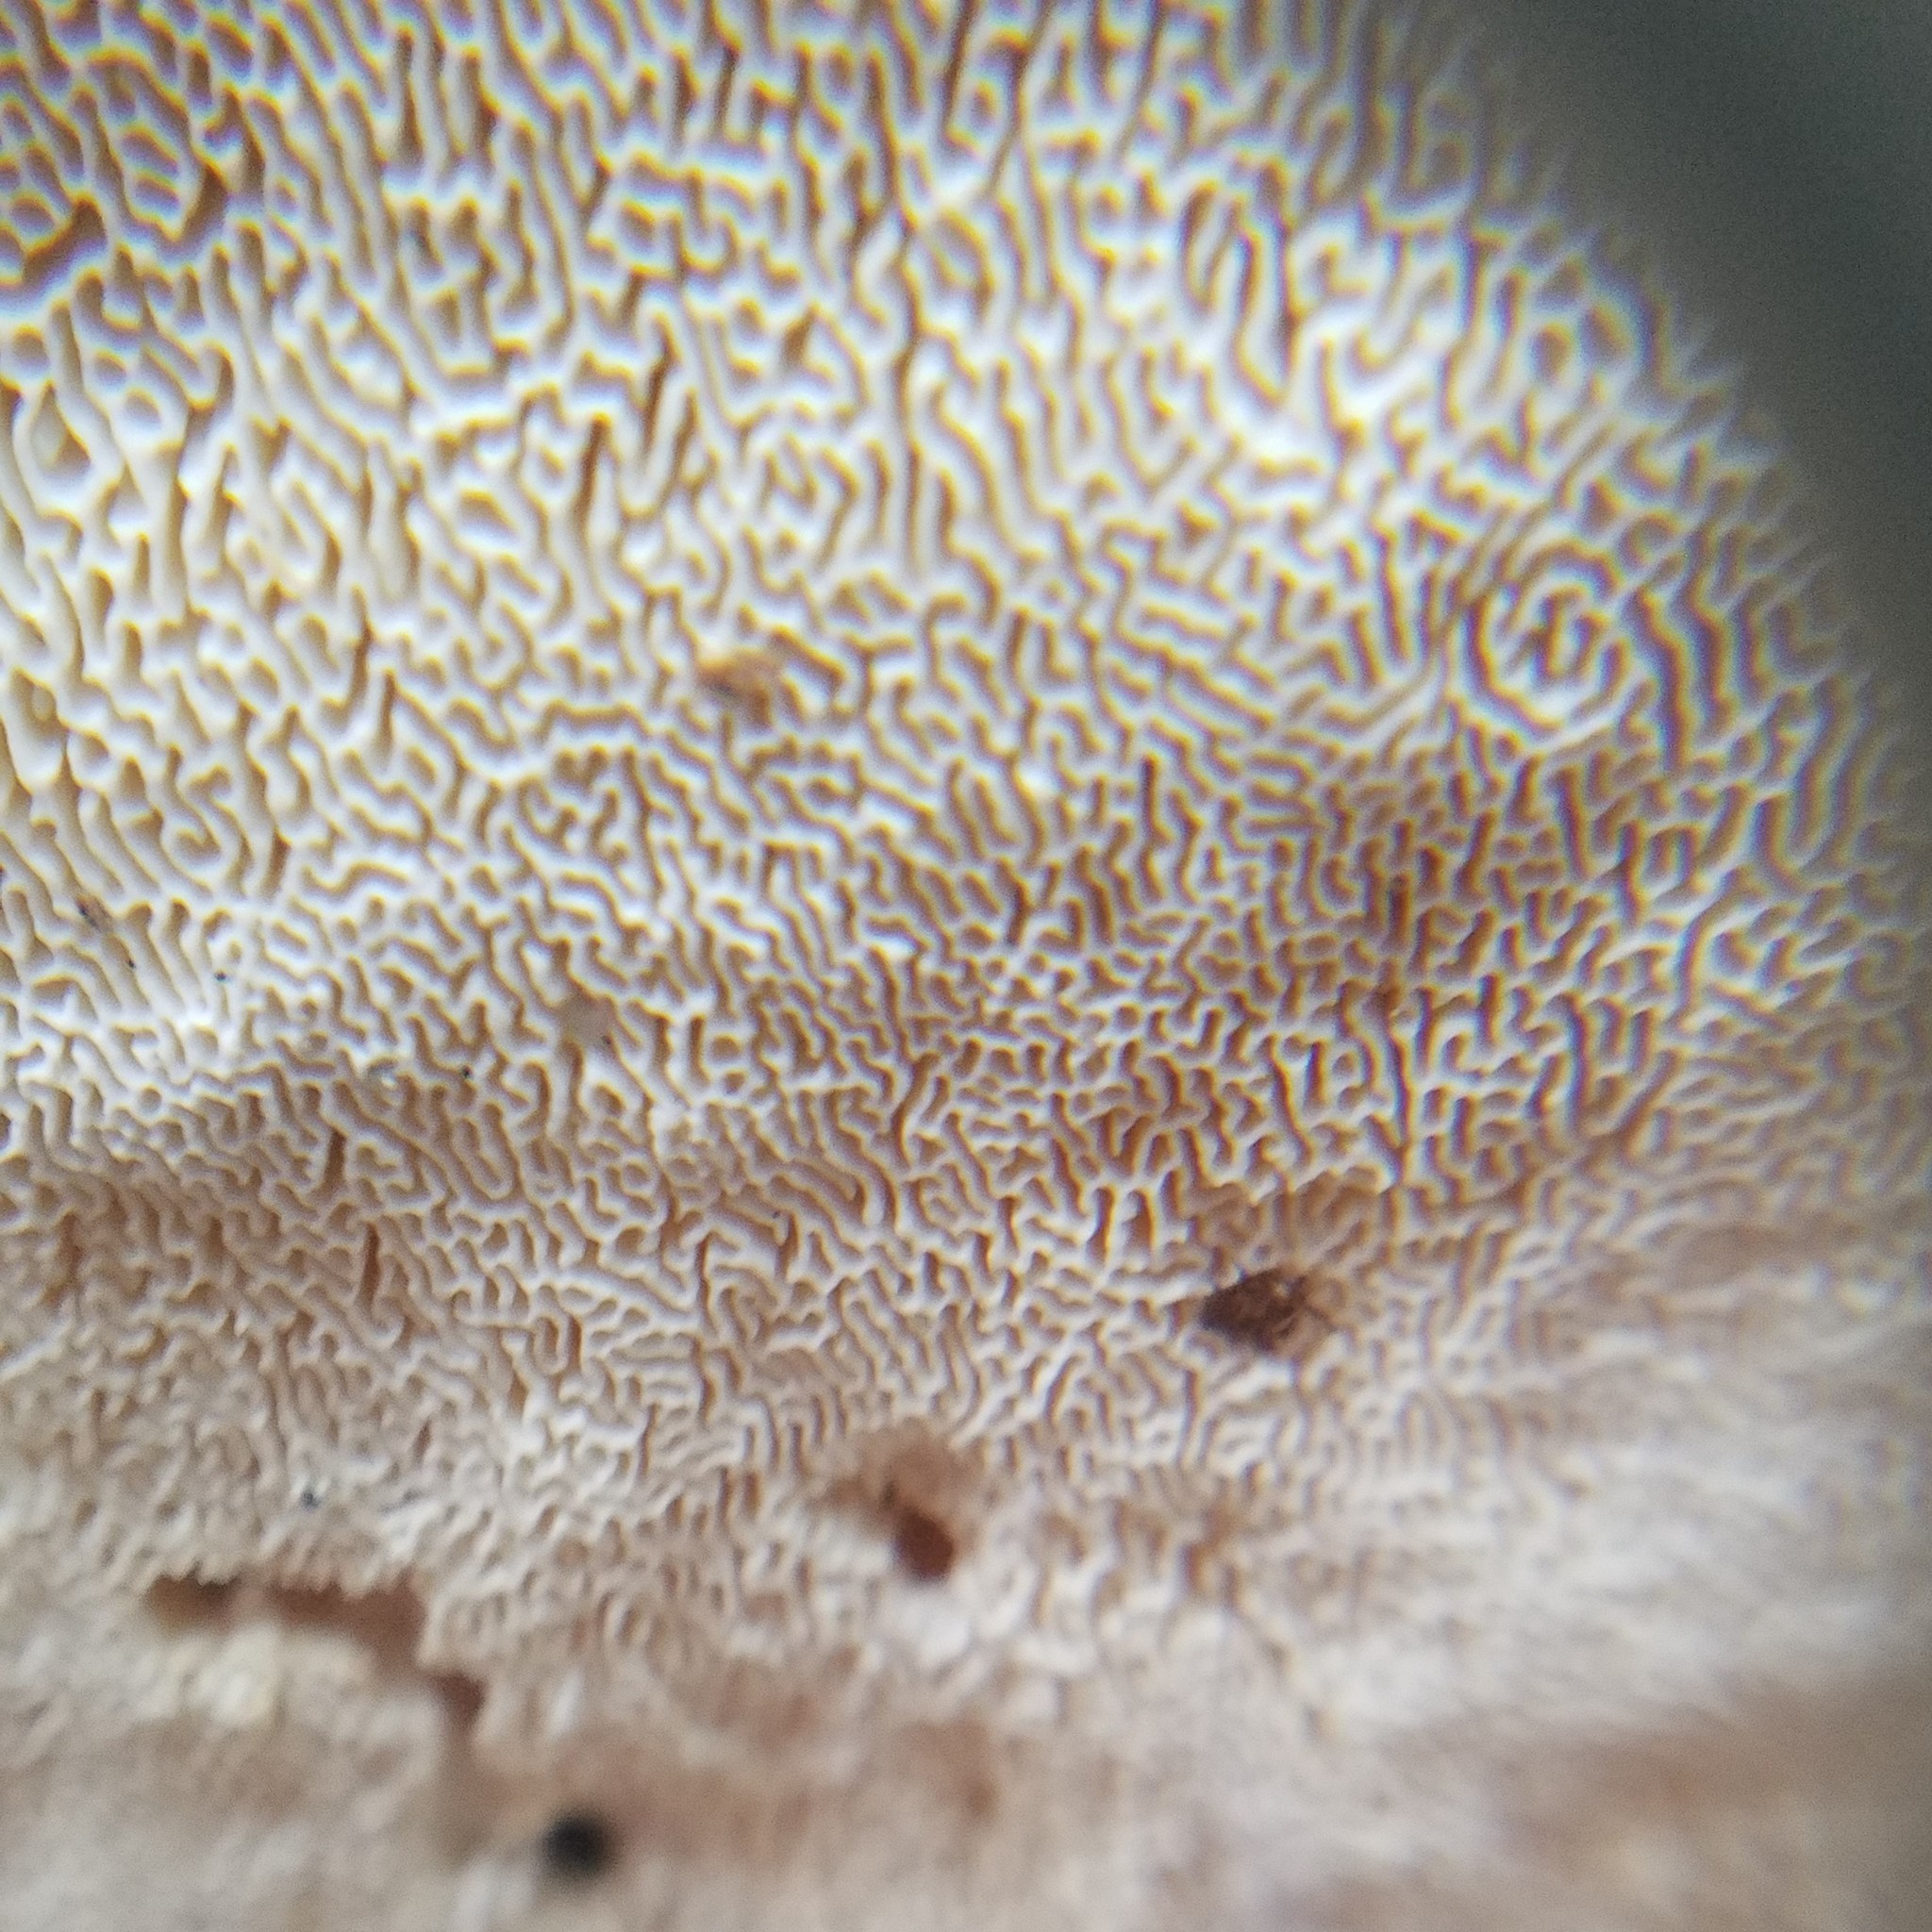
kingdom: Fungi
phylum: Basidiomycota
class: Agaricomycetes
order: Polyporales
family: Polyporaceae
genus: Trametes
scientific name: Trametes
